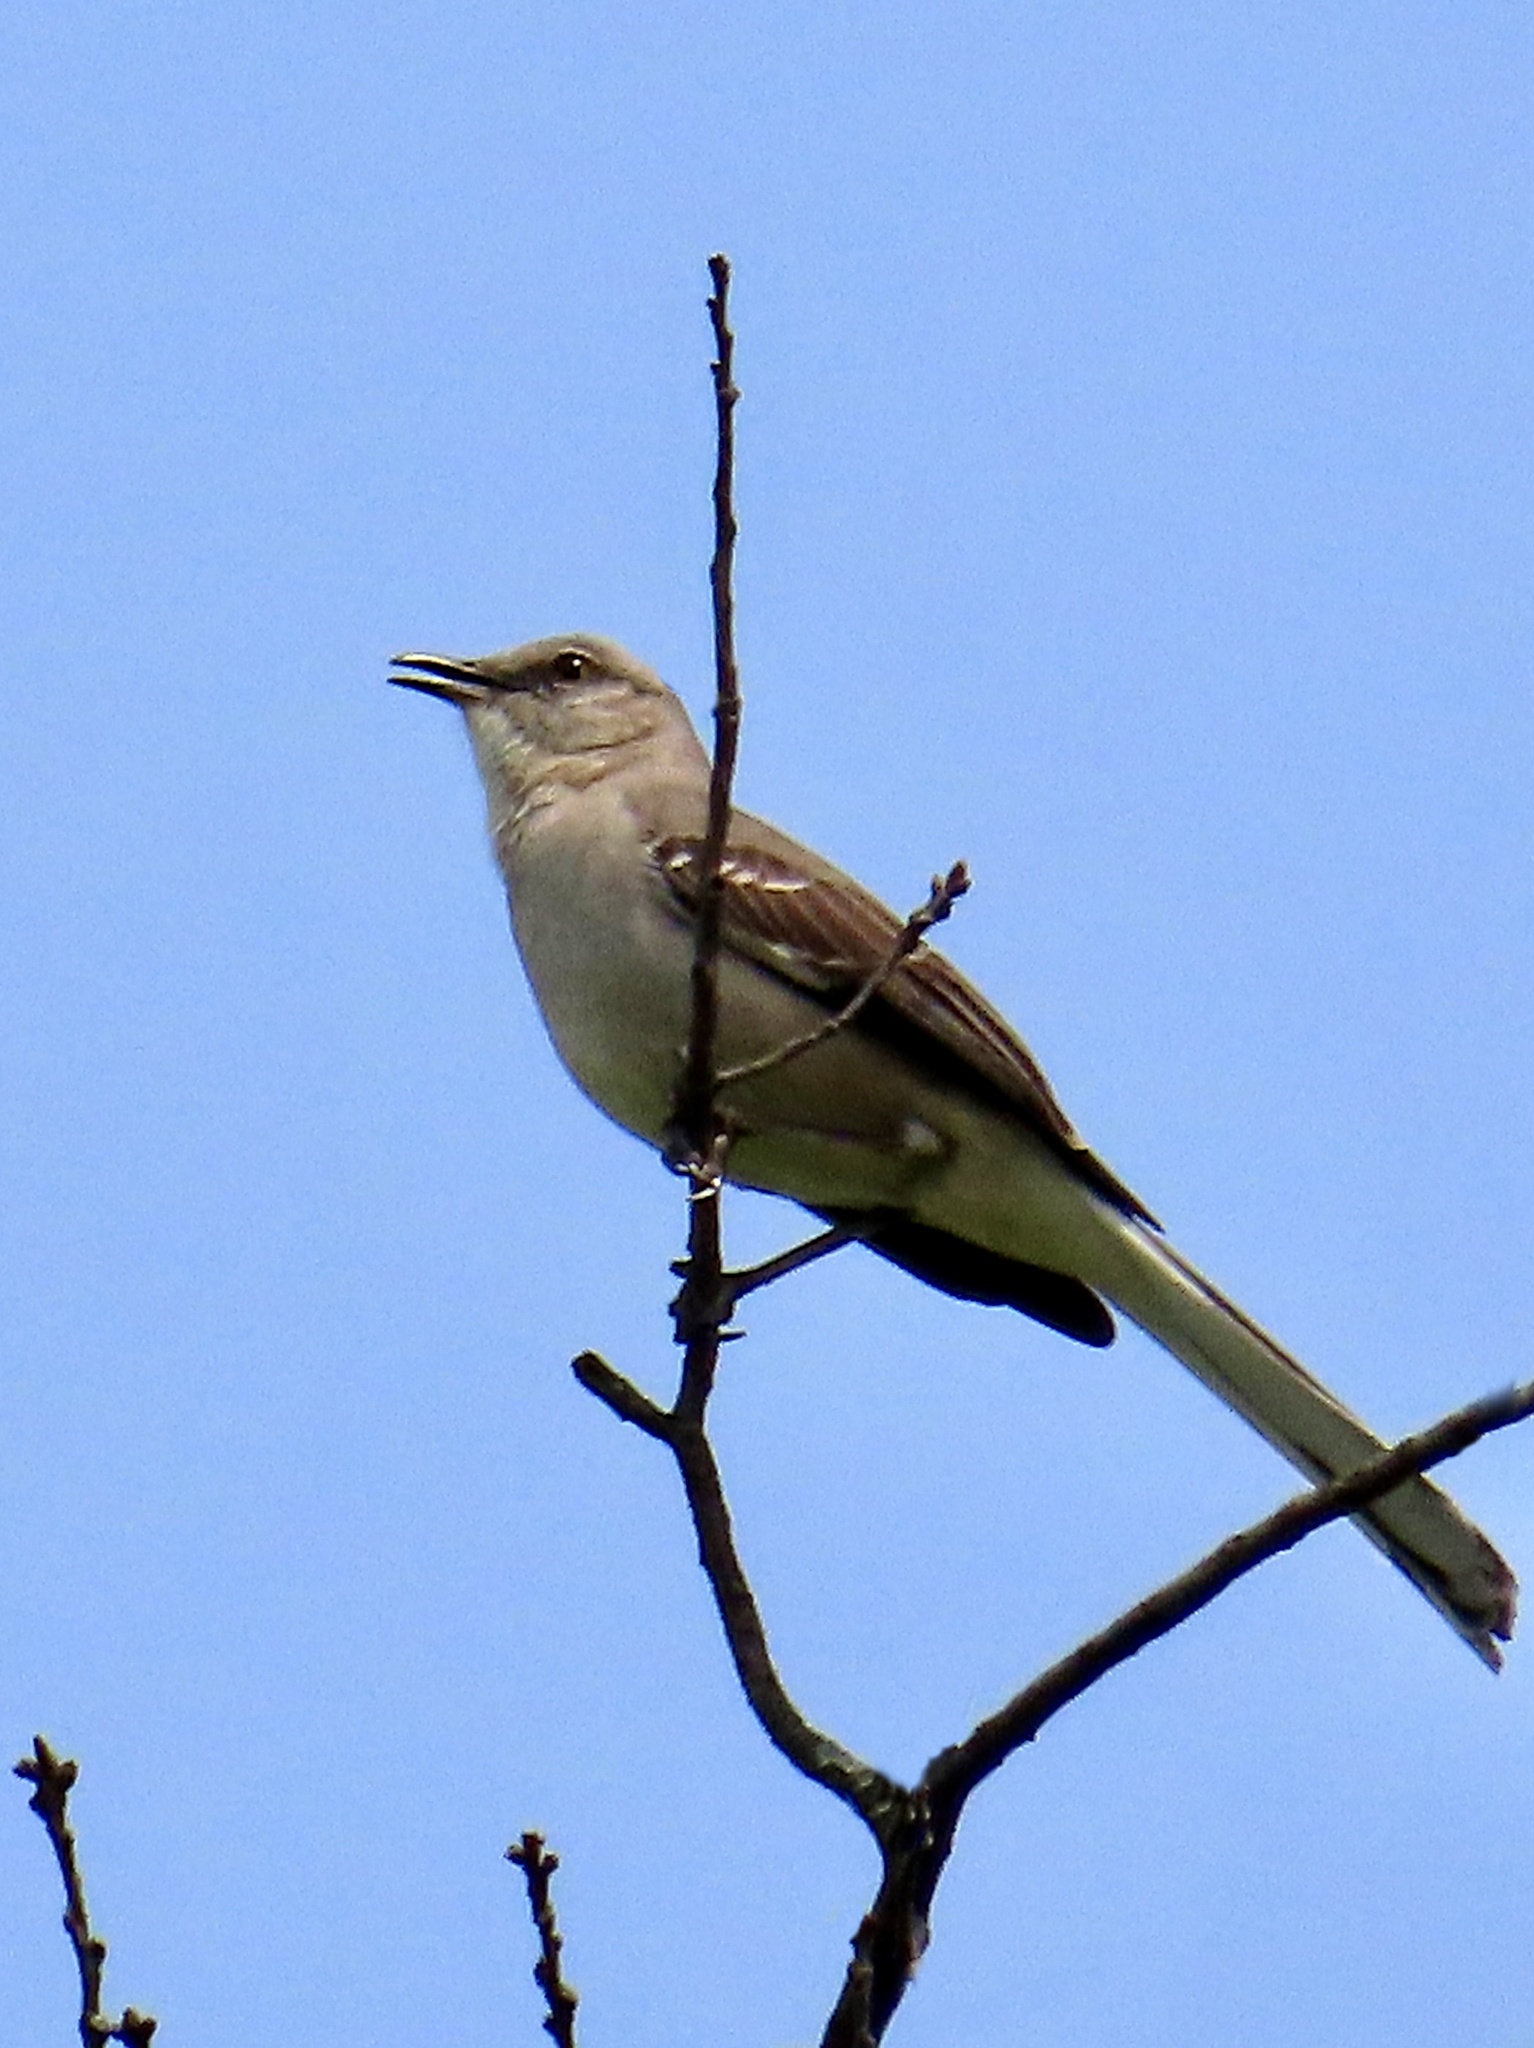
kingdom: Animalia
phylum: Chordata
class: Aves
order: Passeriformes
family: Mimidae
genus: Mimus
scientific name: Mimus polyglottos
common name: Northern mockingbird
